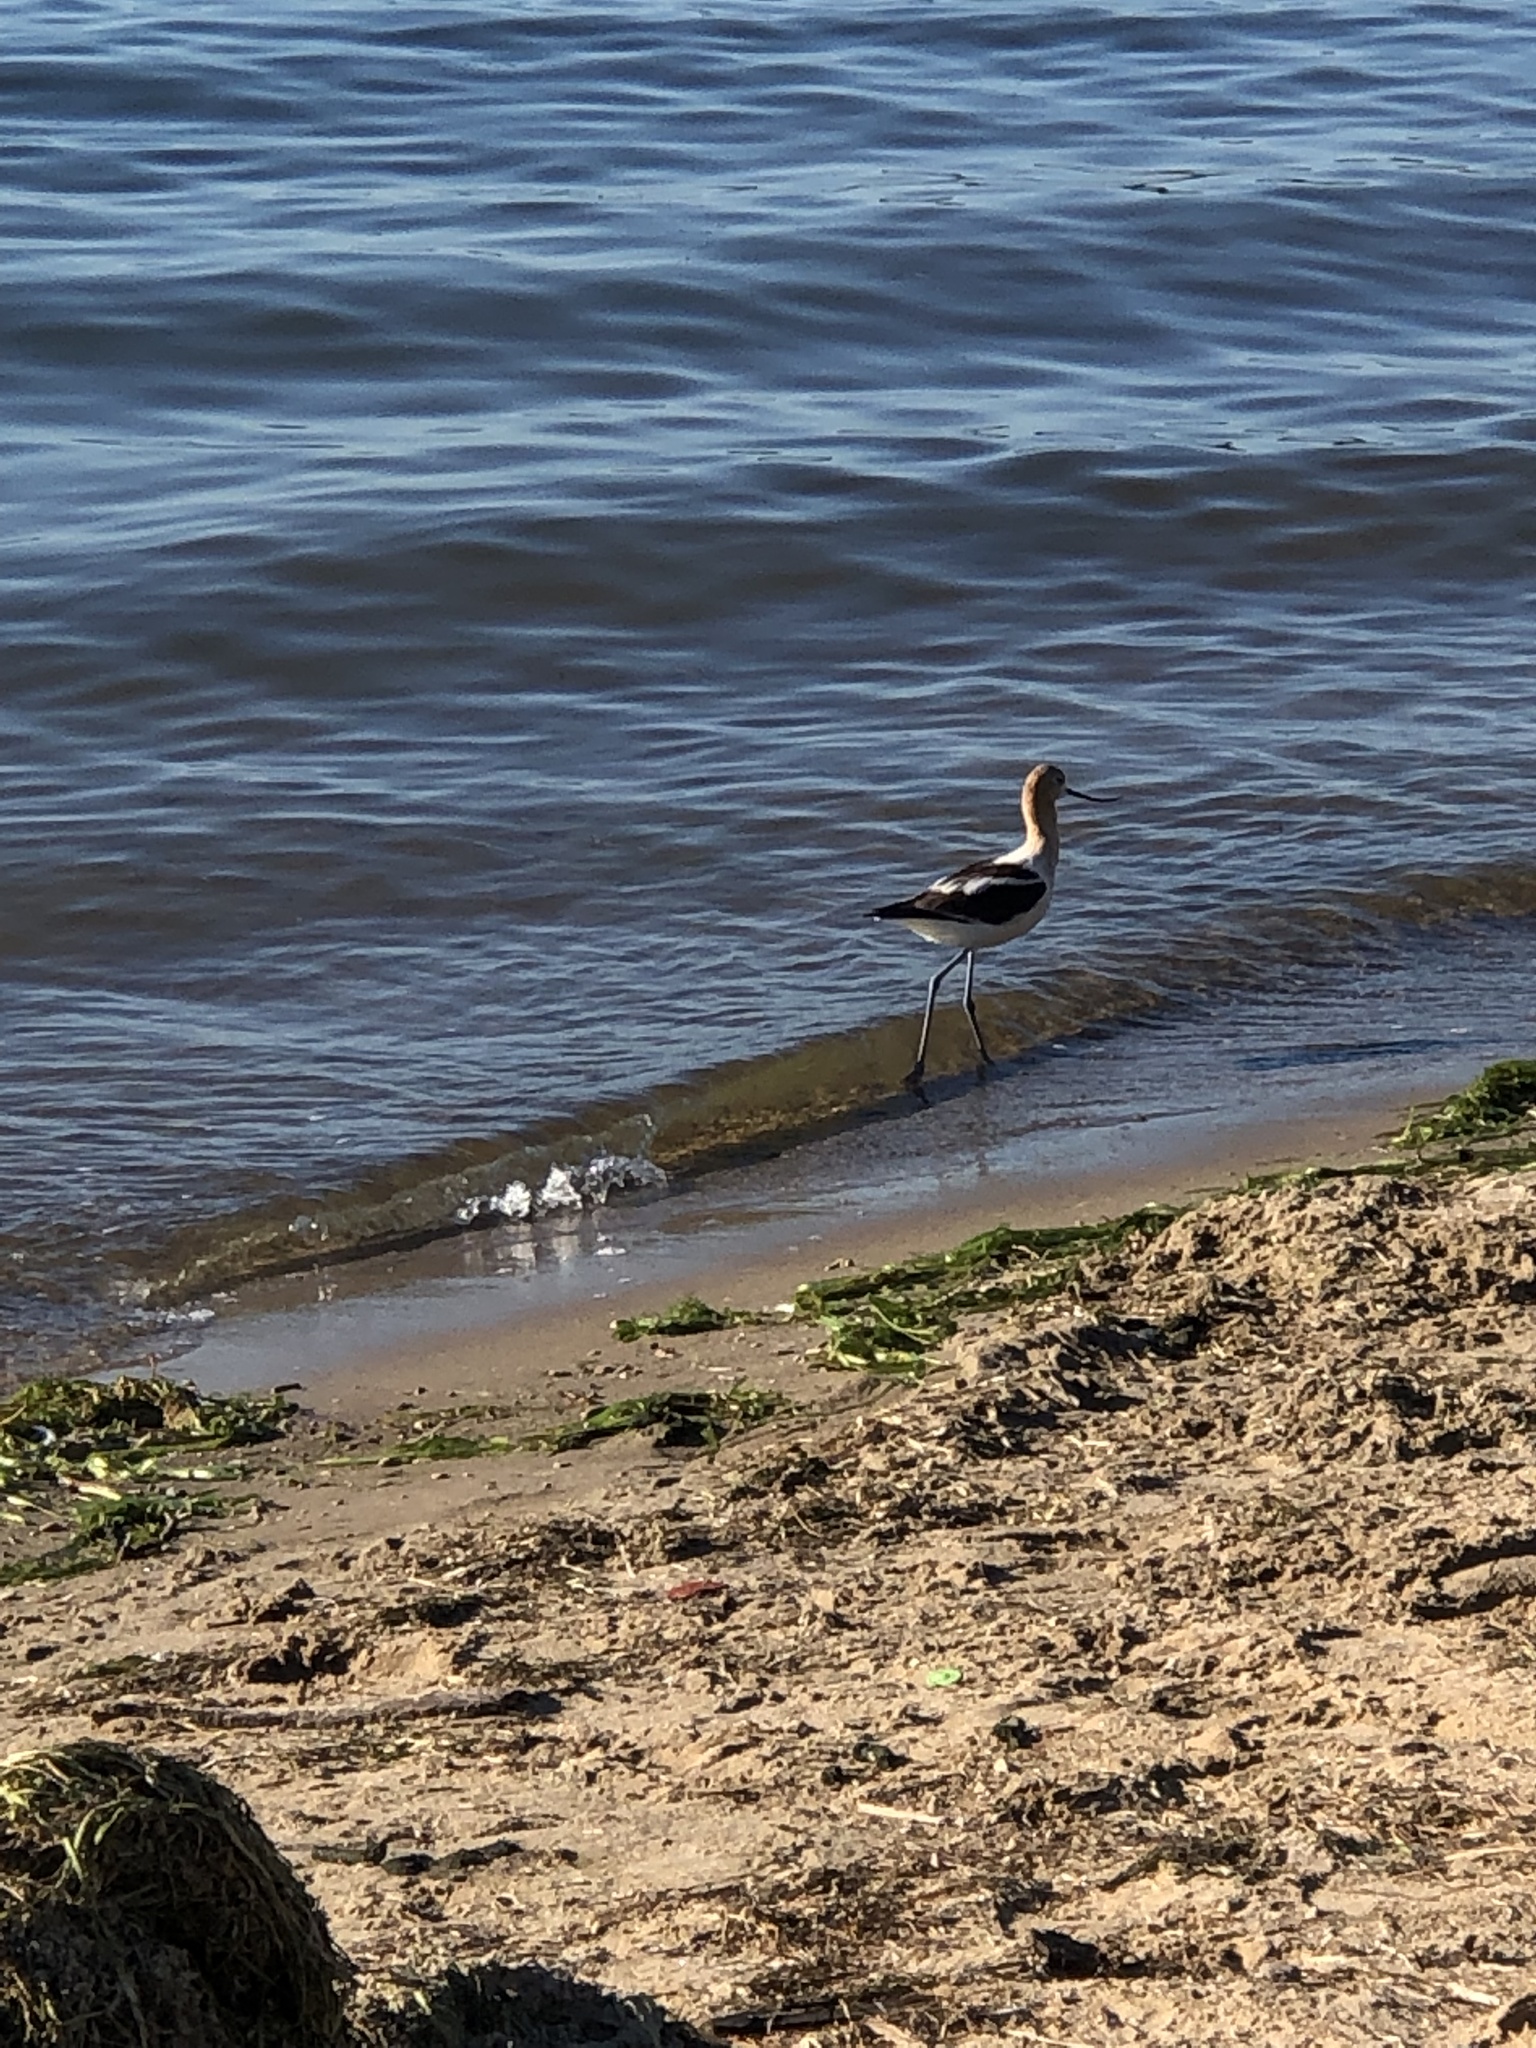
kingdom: Animalia
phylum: Chordata
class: Aves
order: Charadriiformes
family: Recurvirostridae
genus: Recurvirostra
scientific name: Recurvirostra americana
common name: American avocet
